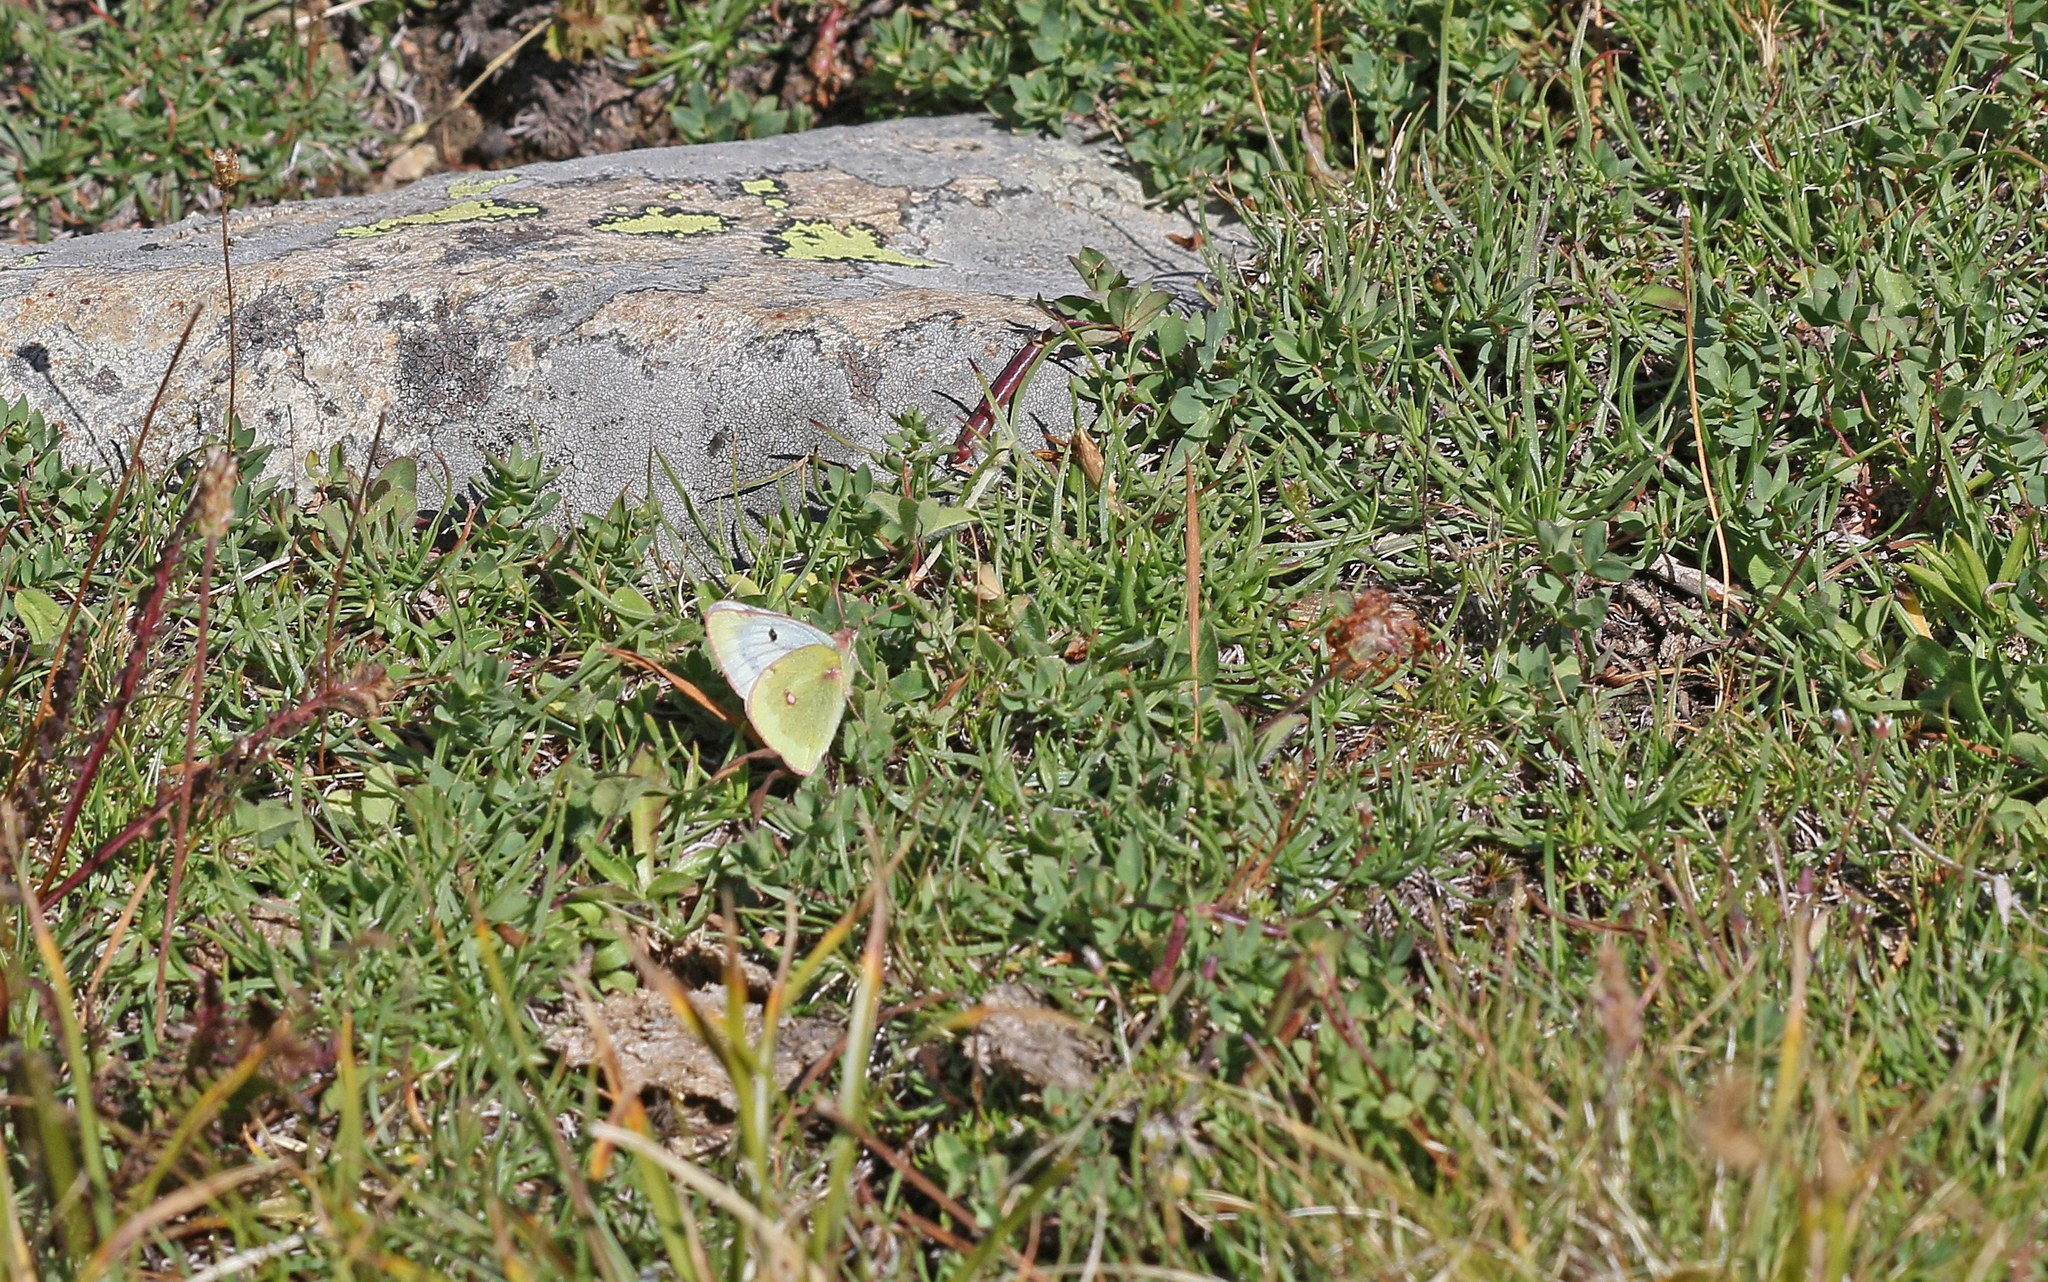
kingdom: Animalia
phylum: Arthropoda
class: Insecta
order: Lepidoptera
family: Pieridae
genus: Colias
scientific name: Colias phicomone
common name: Mountain clouded yellow
